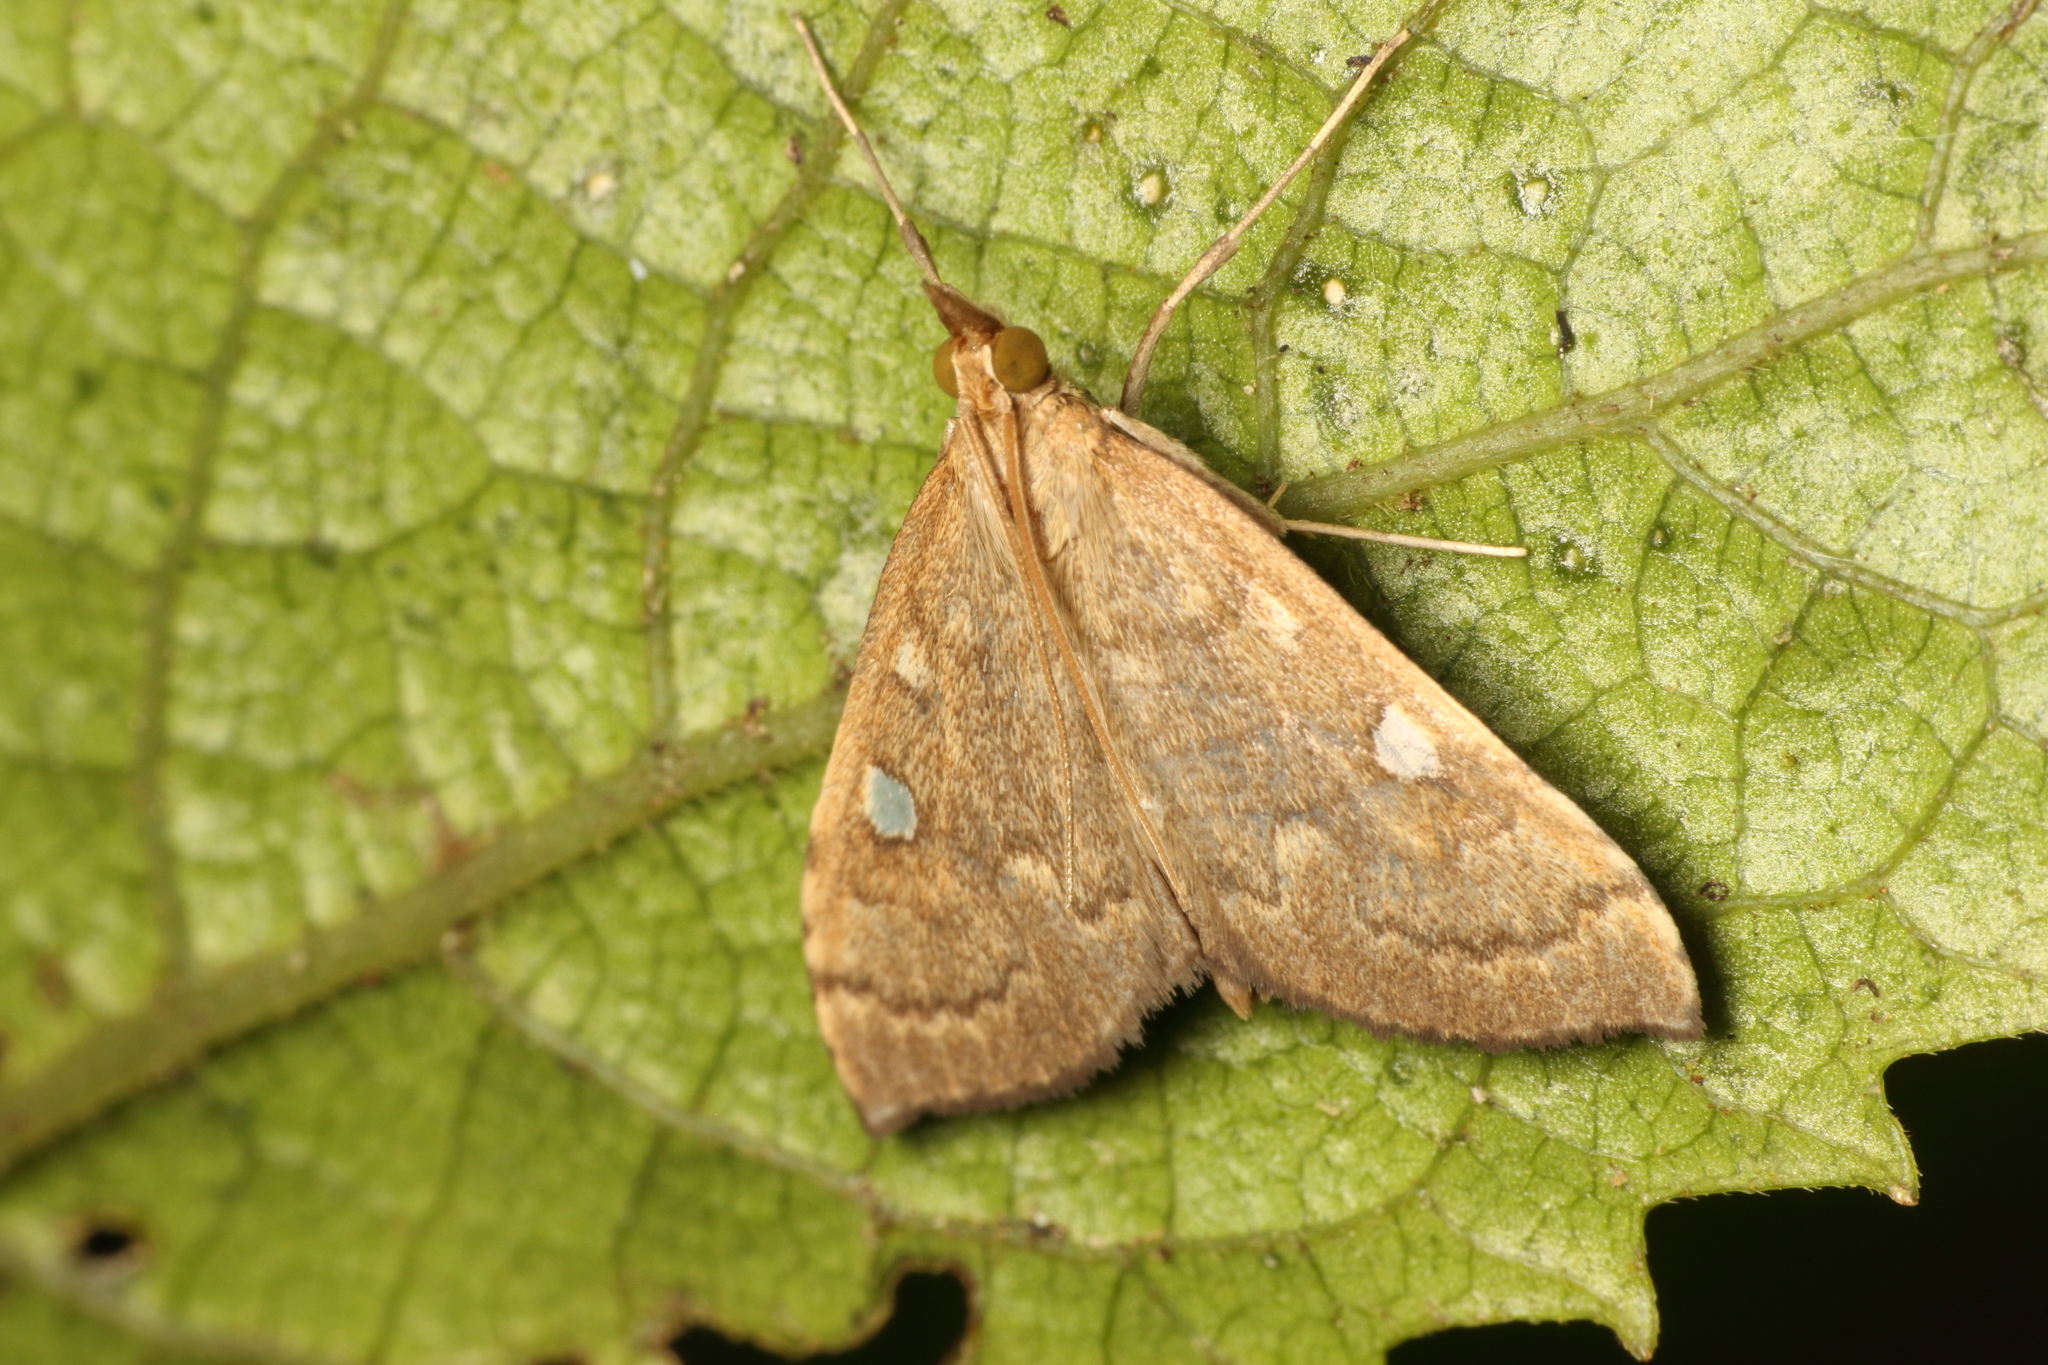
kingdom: Animalia
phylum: Arthropoda
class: Insecta
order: Lepidoptera
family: Crambidae
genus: Udea
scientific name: Udea Mnesictena marmarina
